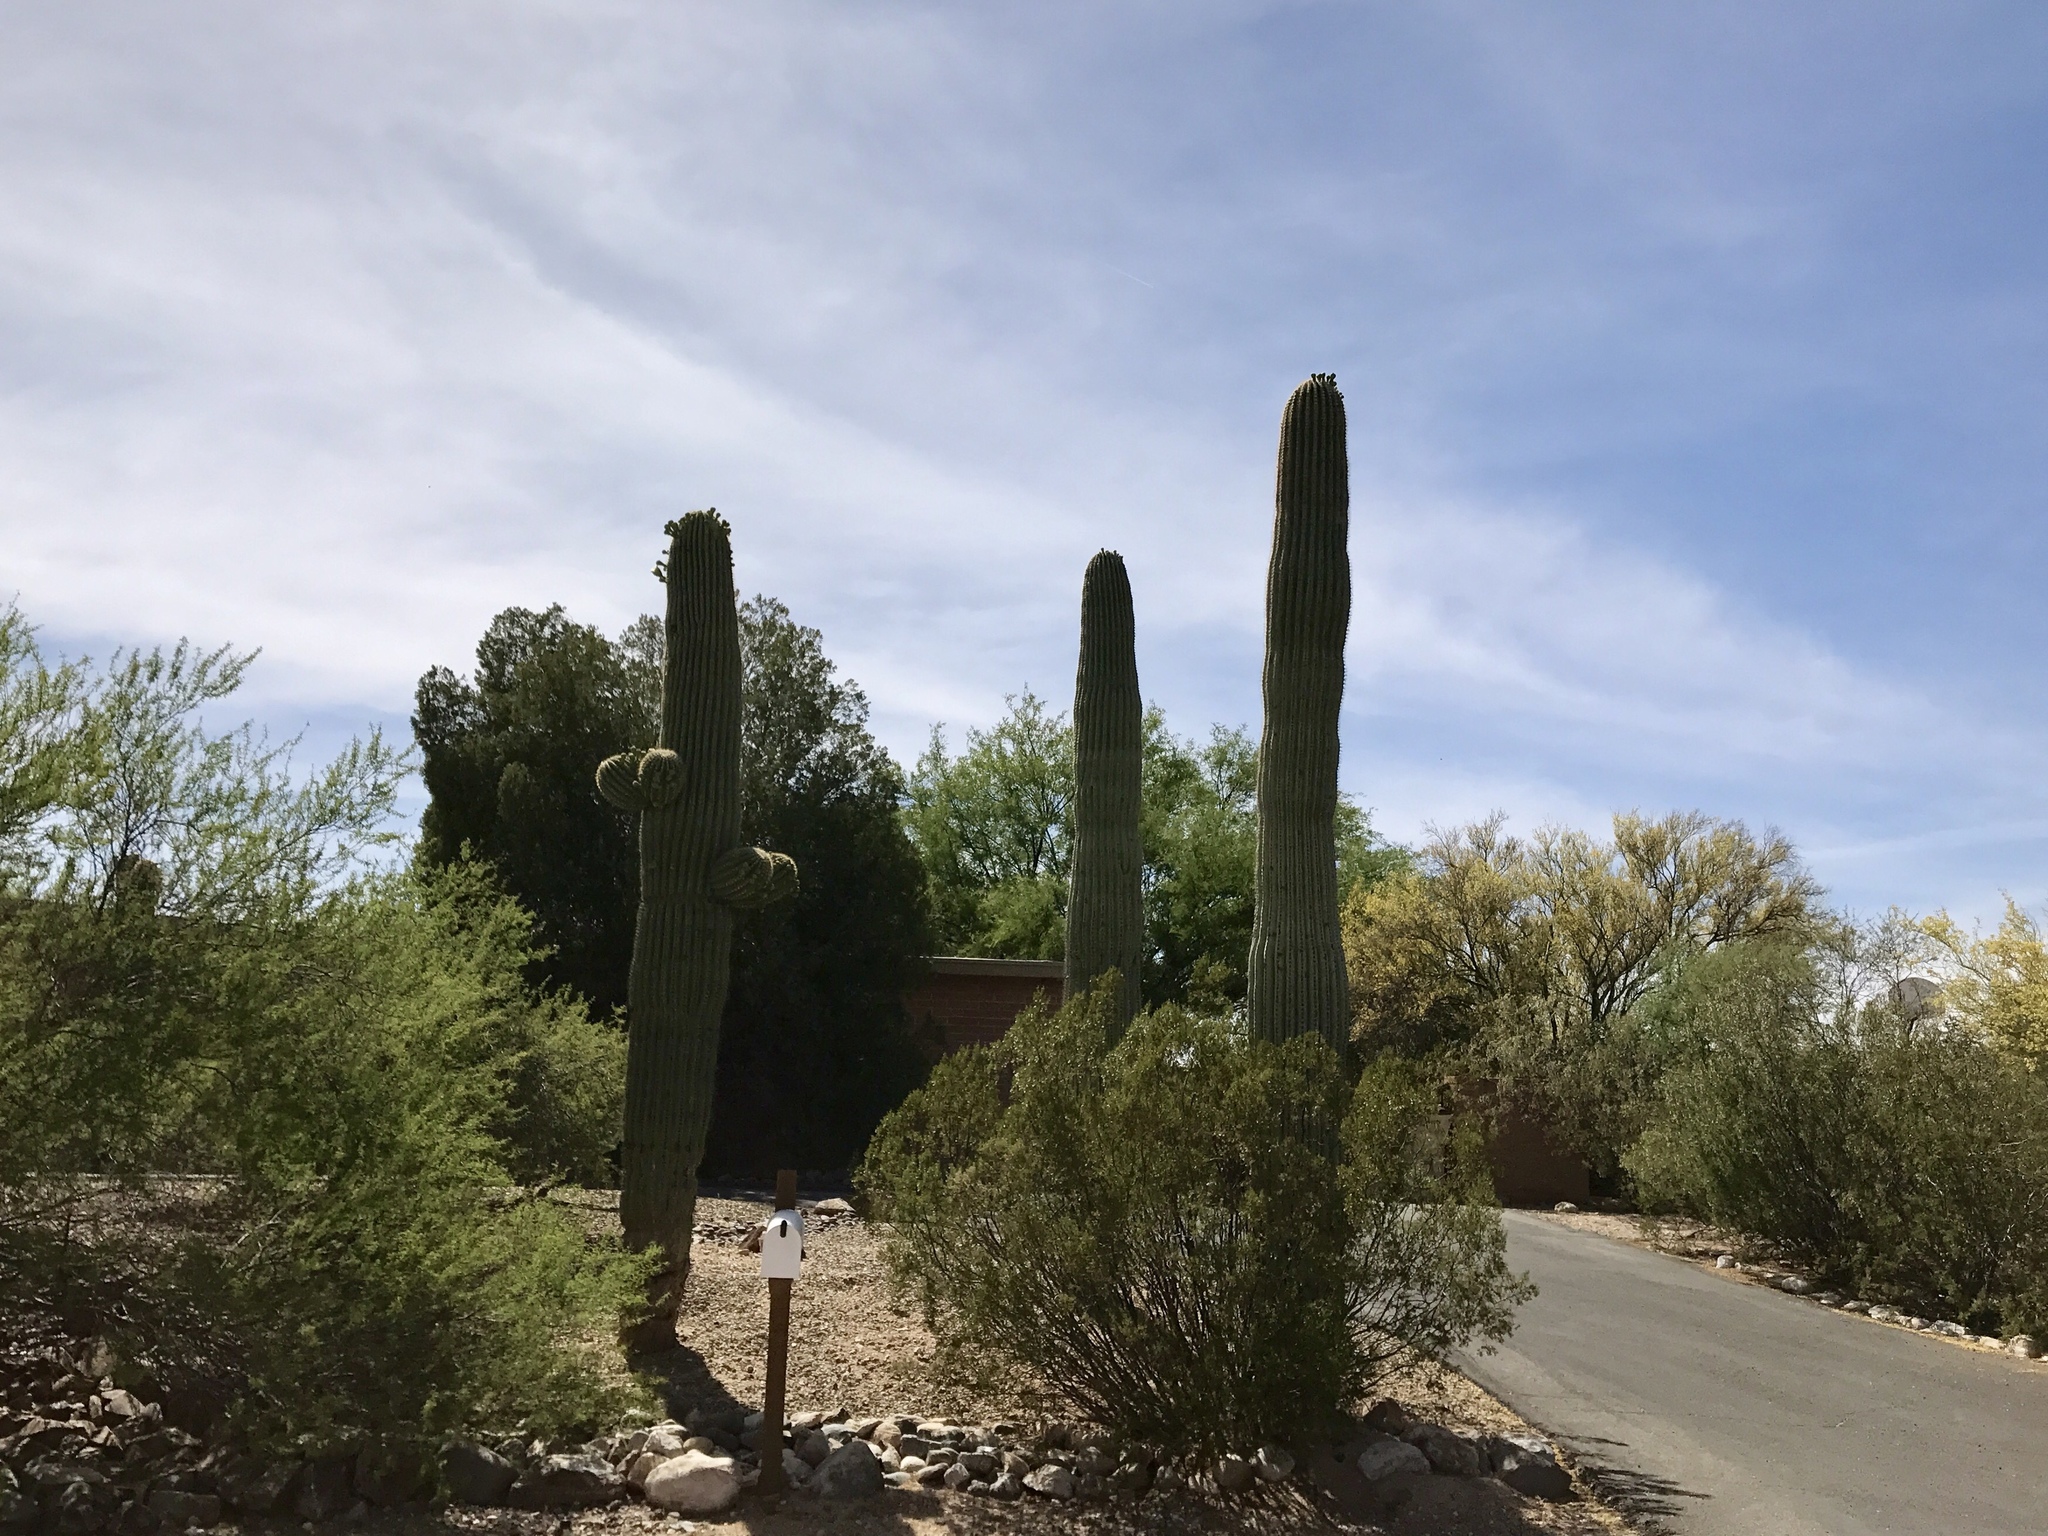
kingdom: Plantae
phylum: Tracheophyta
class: Magnoliopsida
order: Caryophyllales
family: Cactaceae
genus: Carnegiea
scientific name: Carnegiea gigantea
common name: Saguaro
